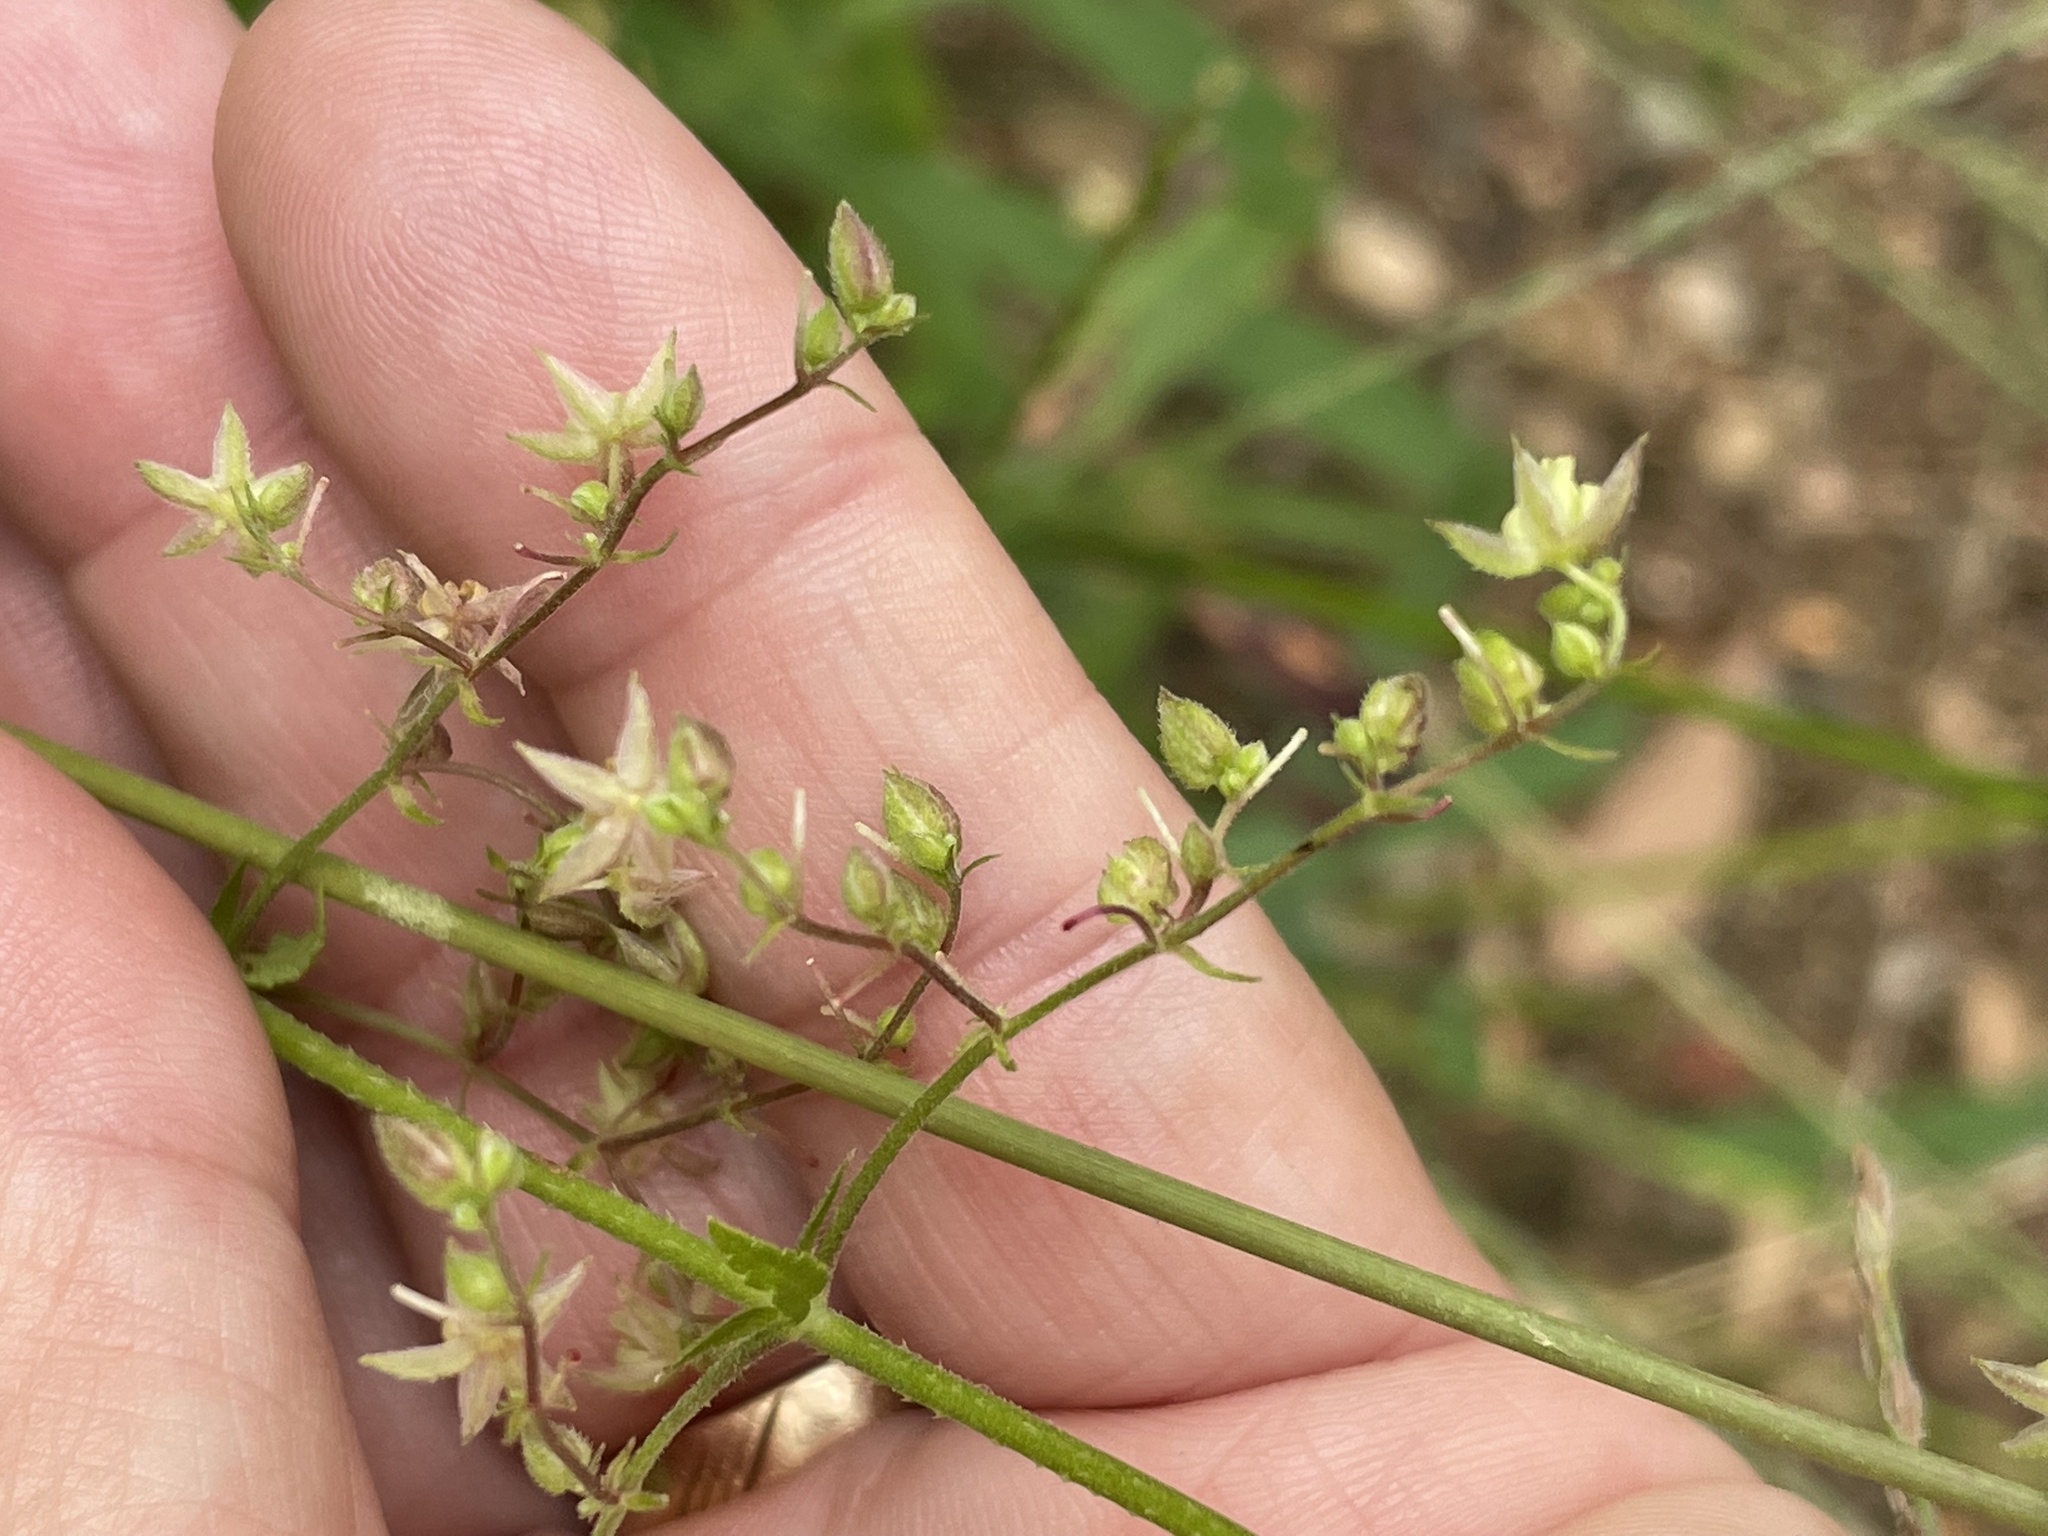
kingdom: Plantae
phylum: Tracheophyta
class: Magnoliopsida
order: Rosales
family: Cannabaceae
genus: Humulus
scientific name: Humulus scandens
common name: Japanese hop
